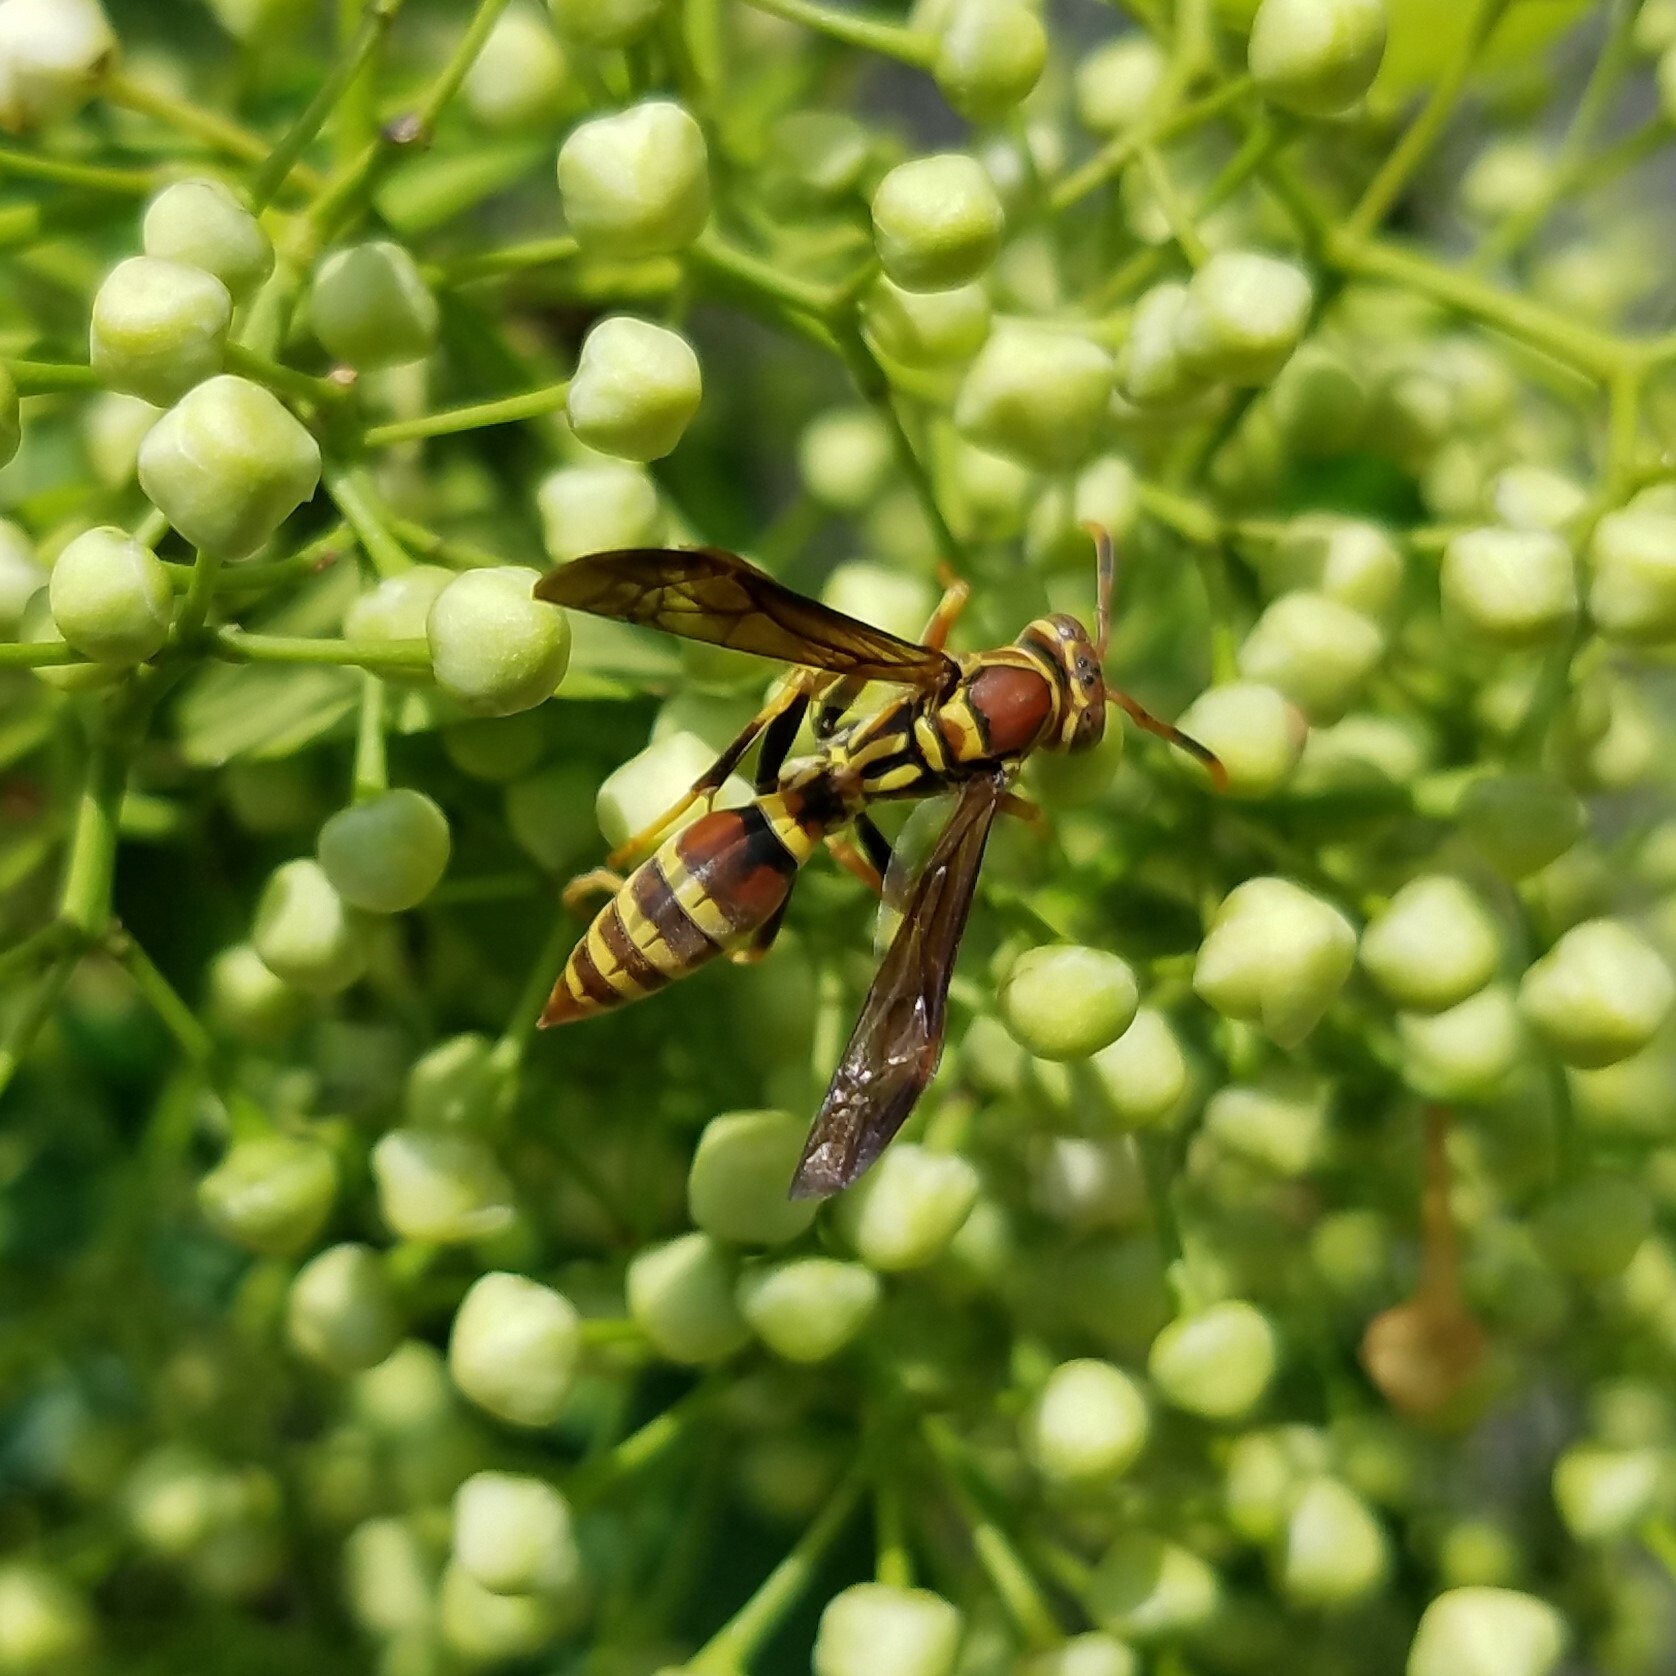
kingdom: Animalia
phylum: Arthropoda
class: Insecta
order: Hymenoptera
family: Eumenidae
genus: Polistes
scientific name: Polistes exclamans
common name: Paper wasp
